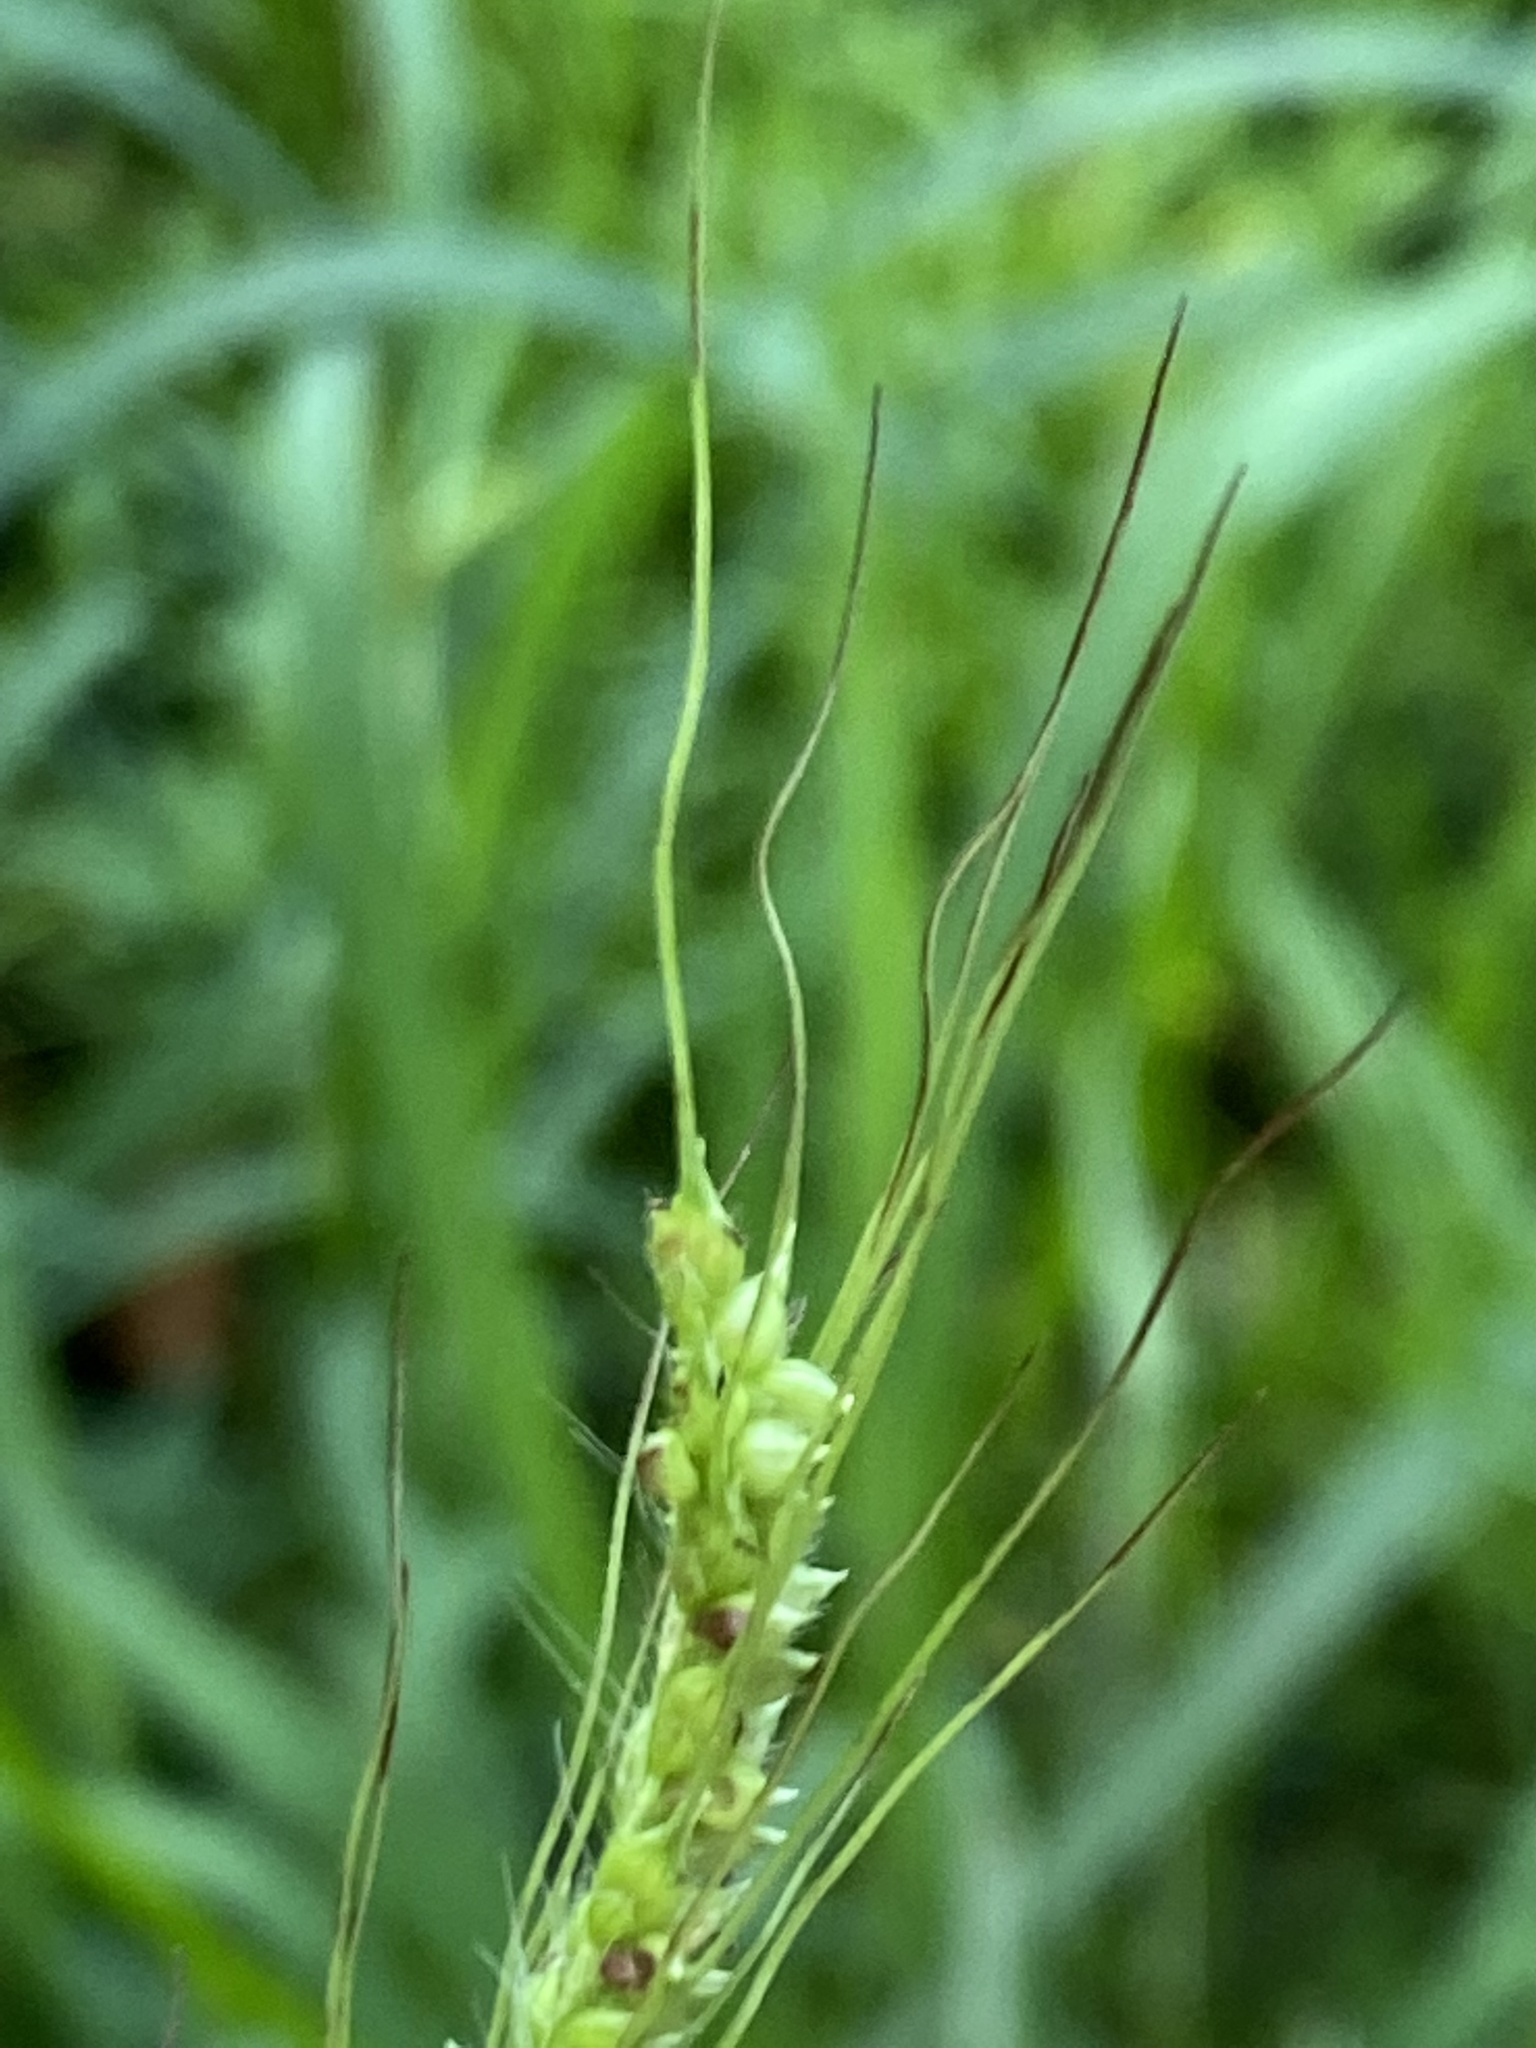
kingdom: Plantae
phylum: Tracheophyta
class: Liliopsida
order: Poales
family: Poaceae
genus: Echinochloa
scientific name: Echinochloa crus-galli
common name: Cockspur
